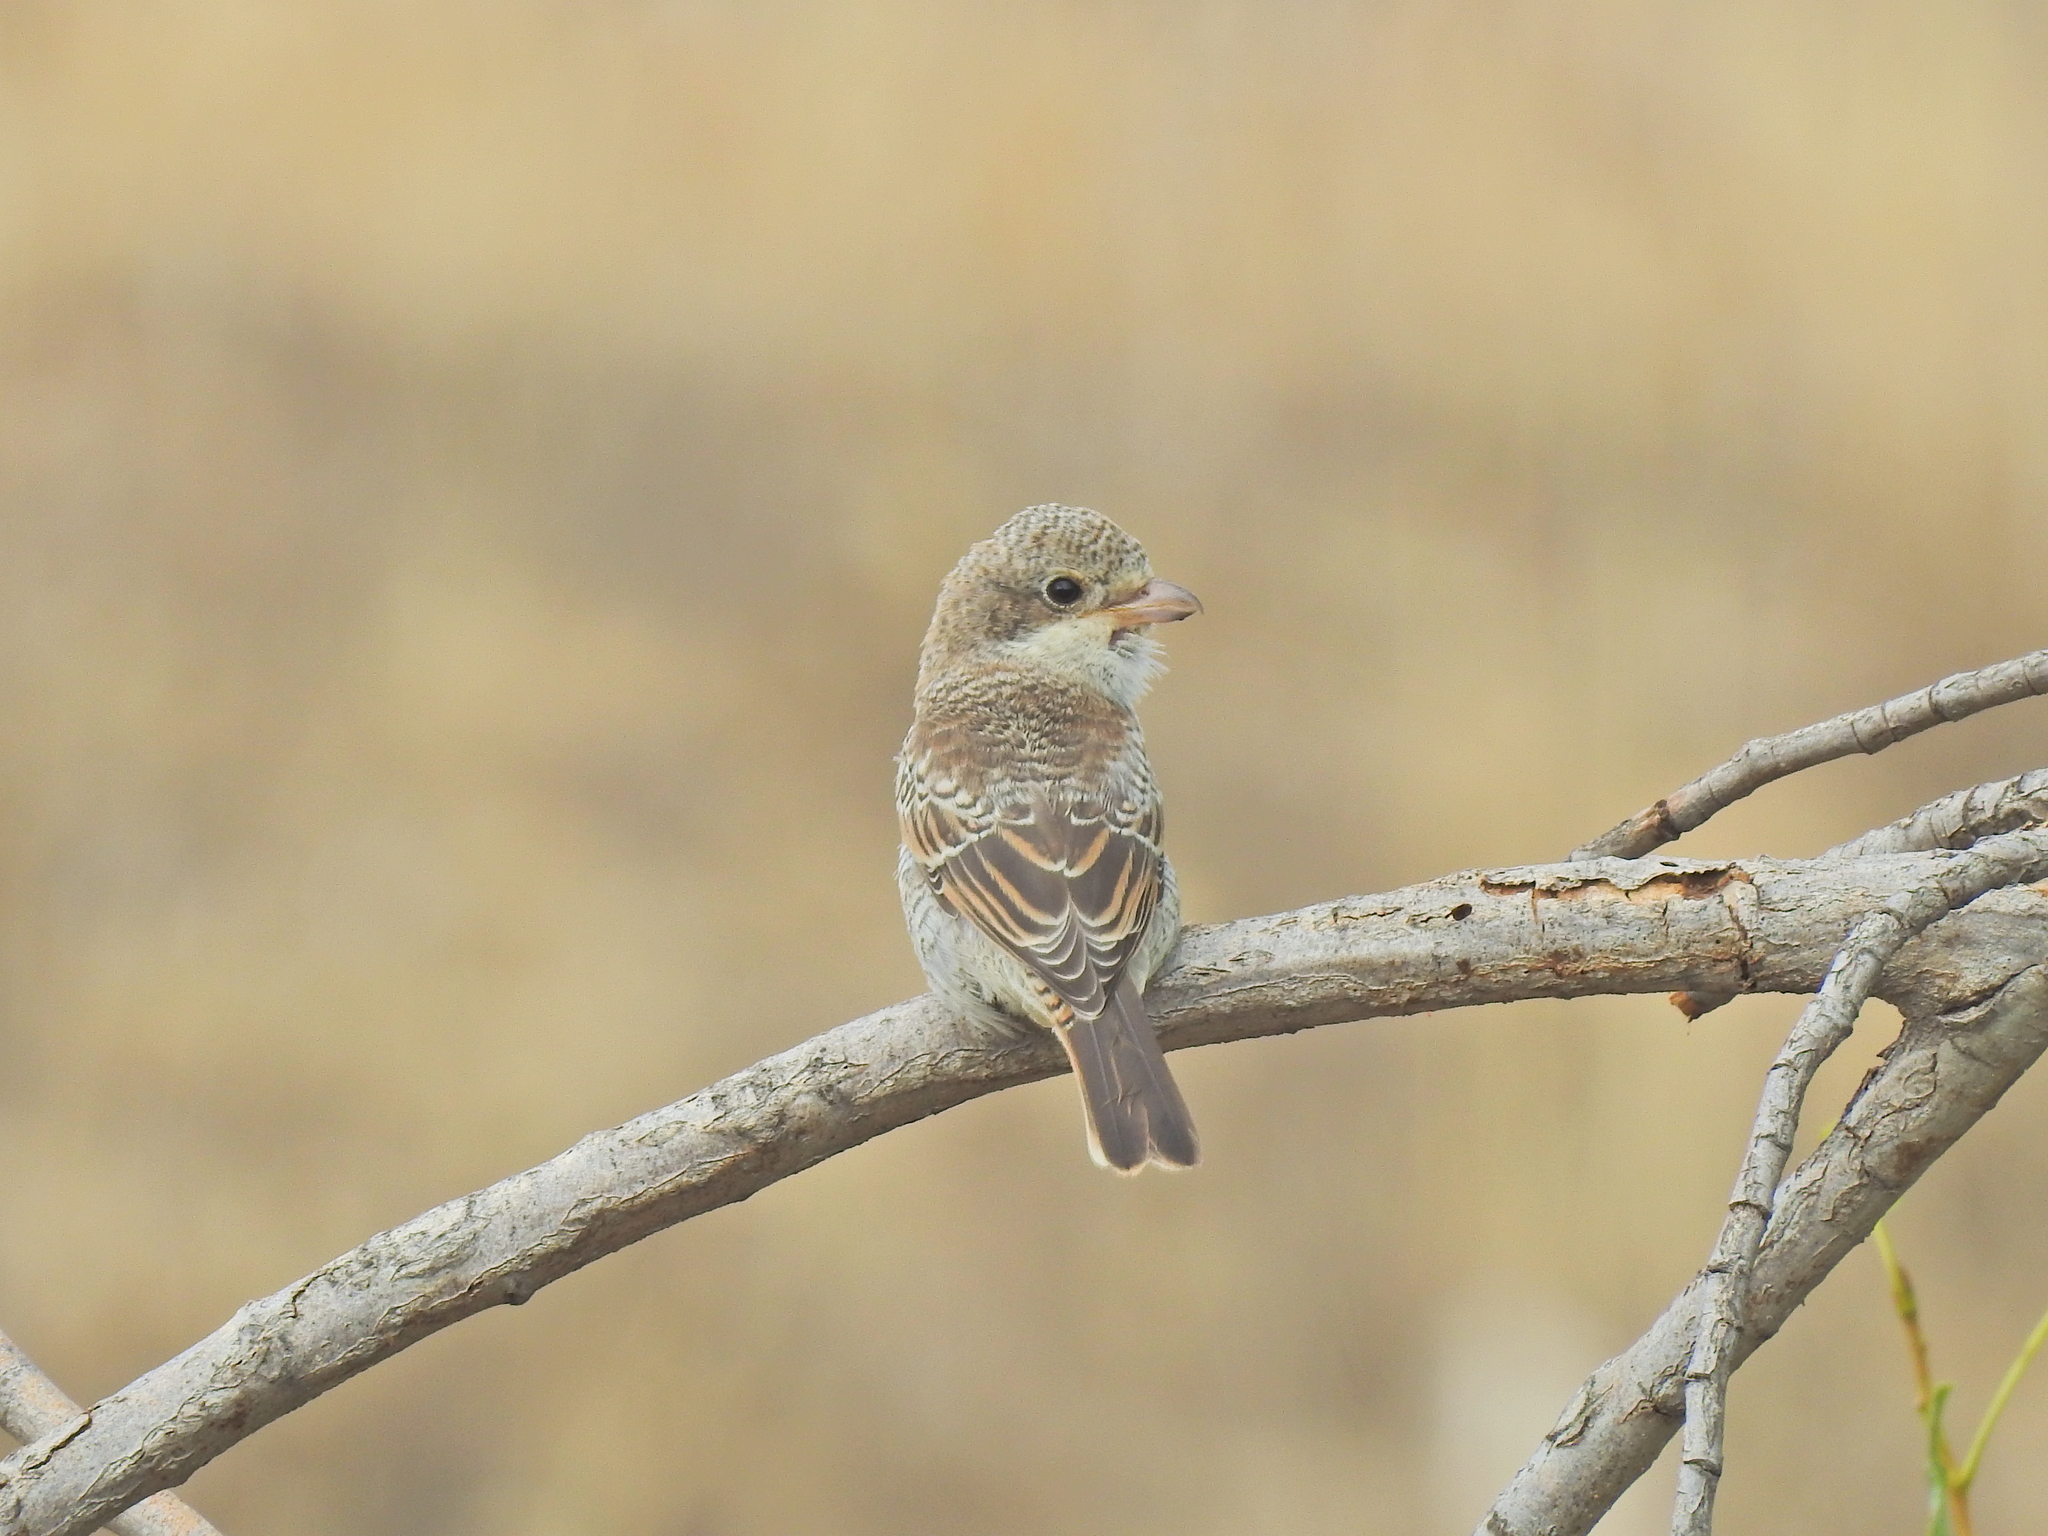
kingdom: Animalia
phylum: Chordata
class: Aves
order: Passeriformes
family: Laniidae
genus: Lanius
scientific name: Lanius senator
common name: Woodchat shrike
